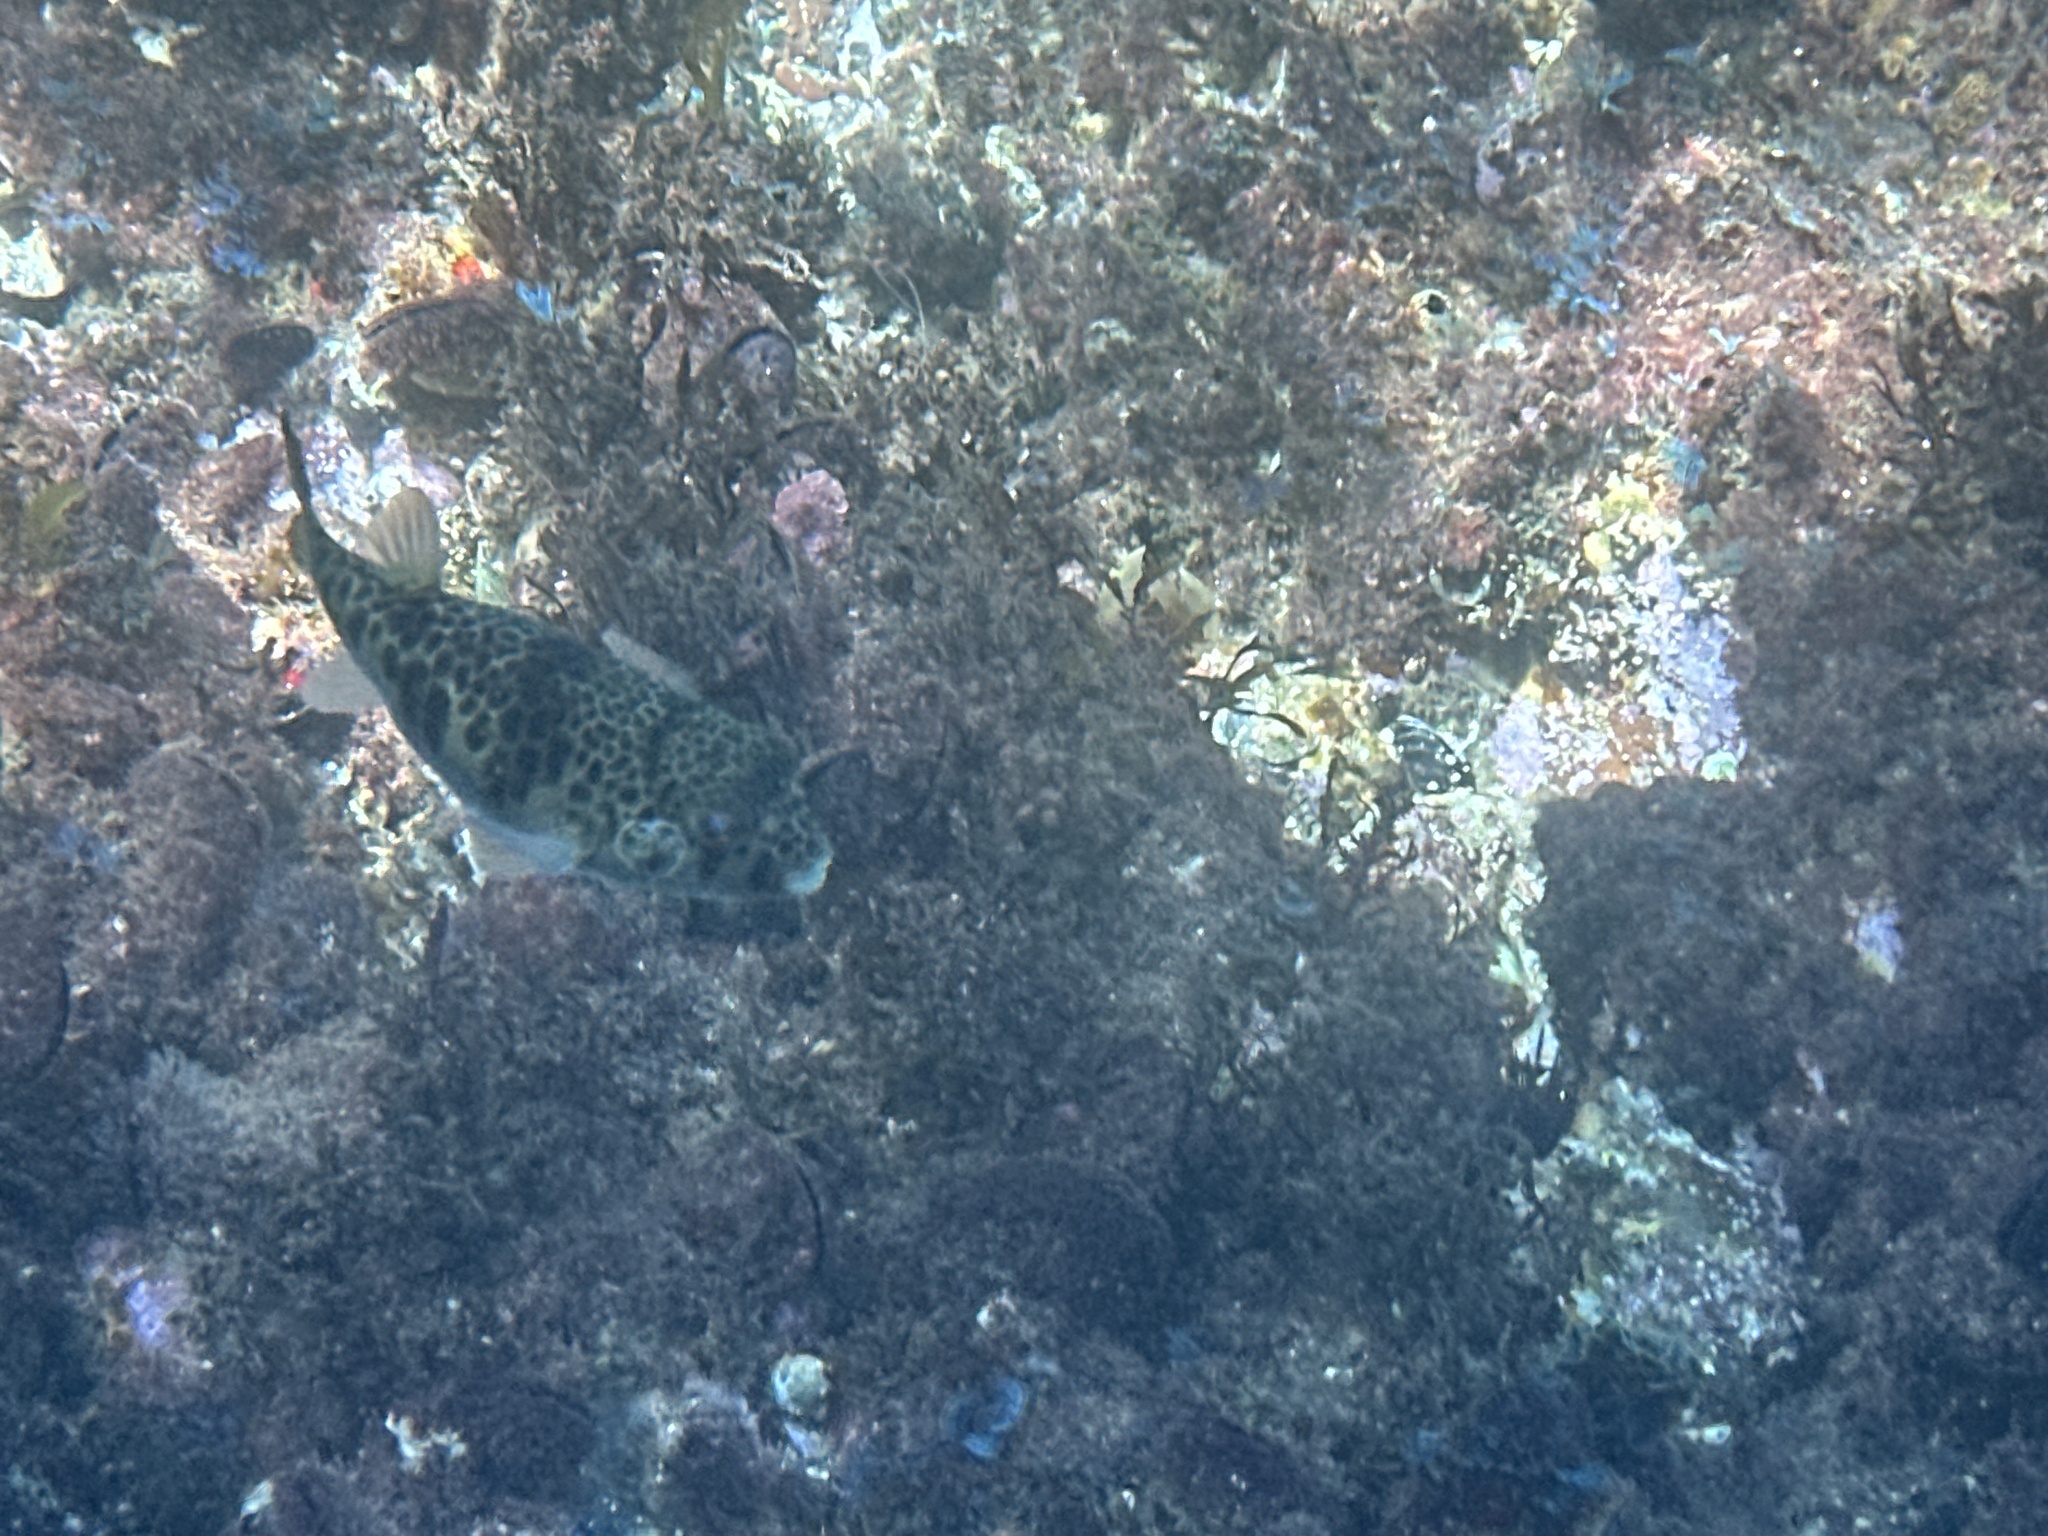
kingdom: Animalia
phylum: Chordata
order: Tetraodontiformes
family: Tetraodontidae
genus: Tetractenos
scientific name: Tetractenos glaber
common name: Smooth toadfish
